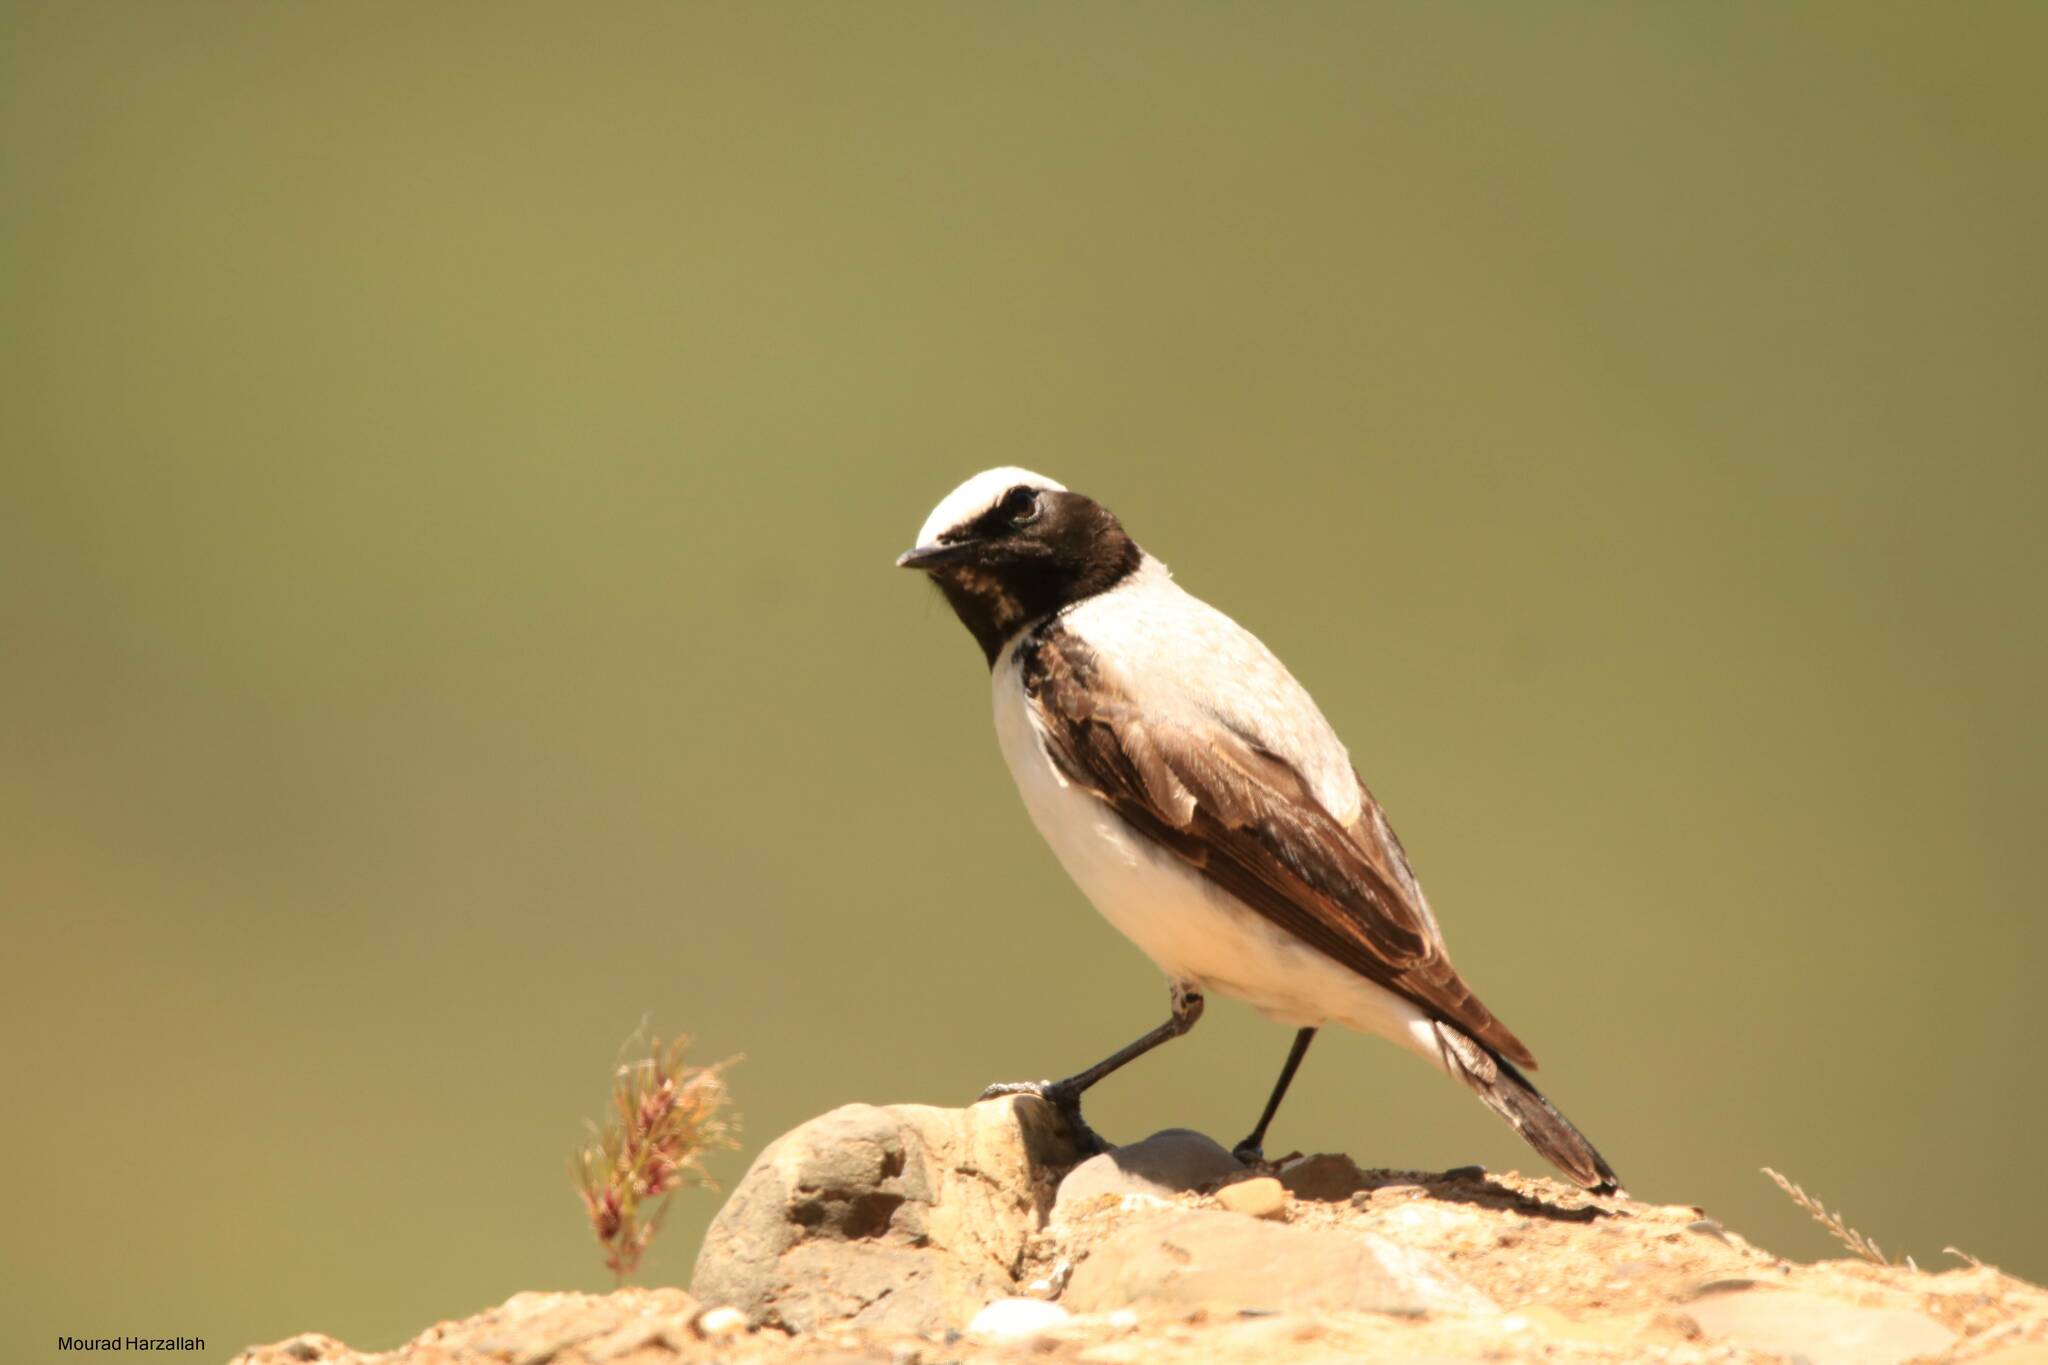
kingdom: Animalia
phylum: Chordata
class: Aves
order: Passeriformes
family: Muscicapidae
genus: Oenanthe
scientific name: Oenanthe oenanthe
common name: Northern wheatear
